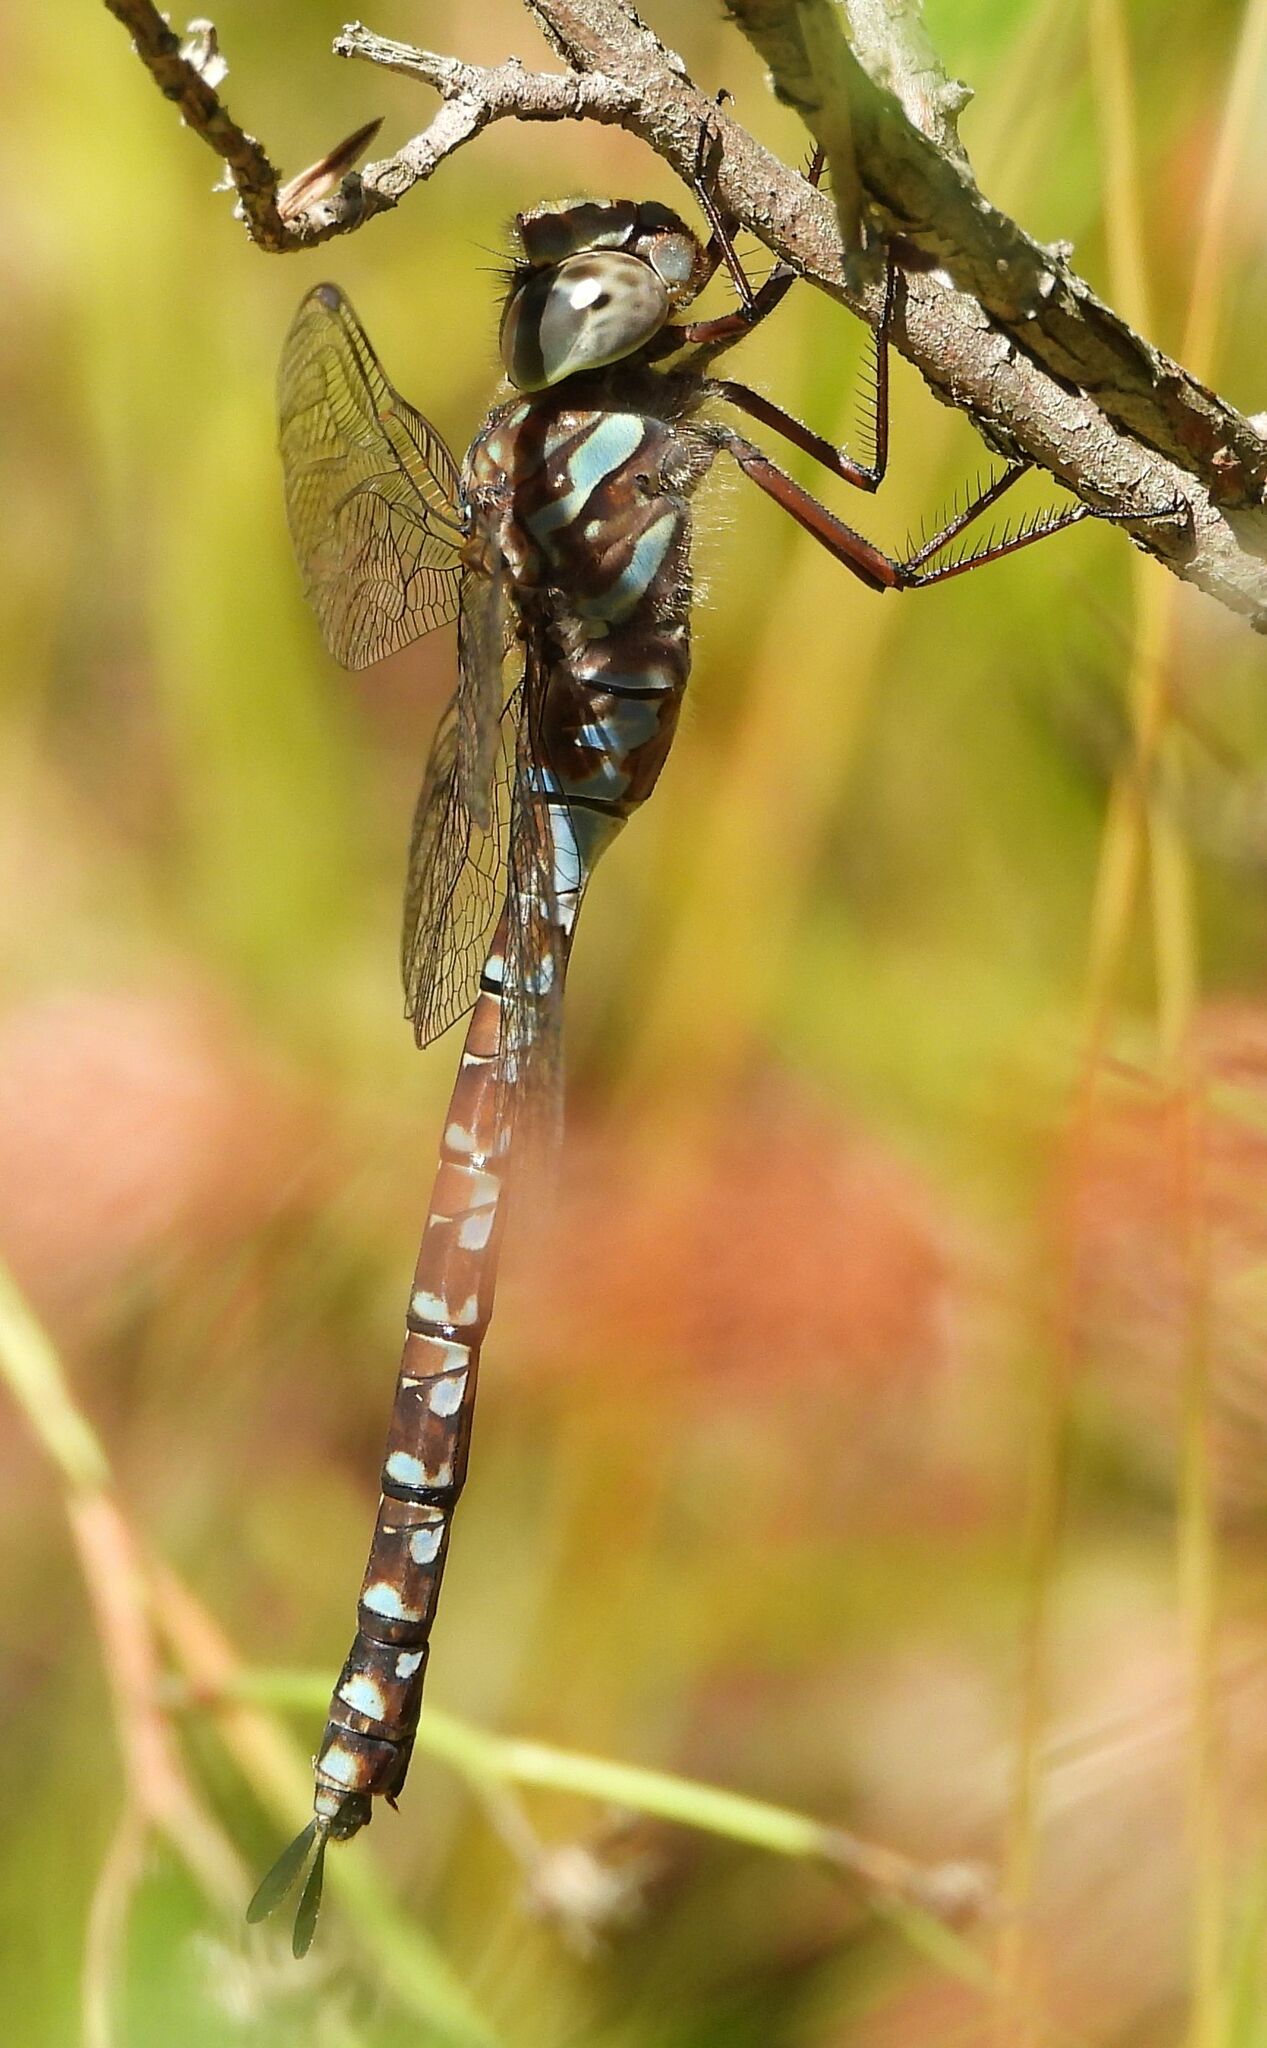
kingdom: Animalia
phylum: Arthropoda
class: Insecta
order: Odonata
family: Aeshnidae
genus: Aeshna
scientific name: Aeshna canadensis
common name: Canada darner
